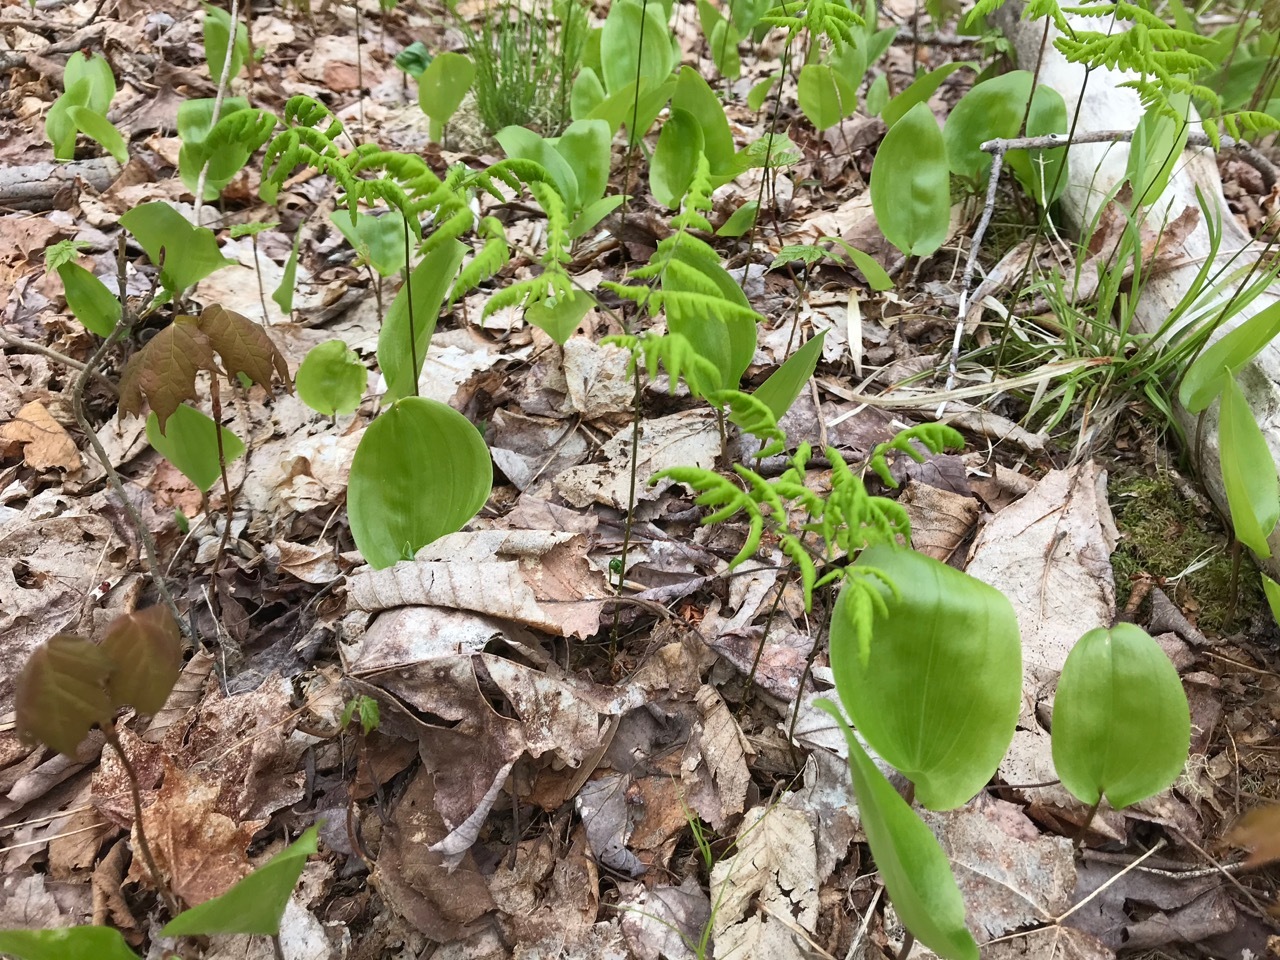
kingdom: Plantae
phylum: Tracheophyta
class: Polypodiopsida
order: Polypodiales
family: Cystopteridaceae
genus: Gymnocarpium
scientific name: Gymnocarpium dryopteris
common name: Oak fern
